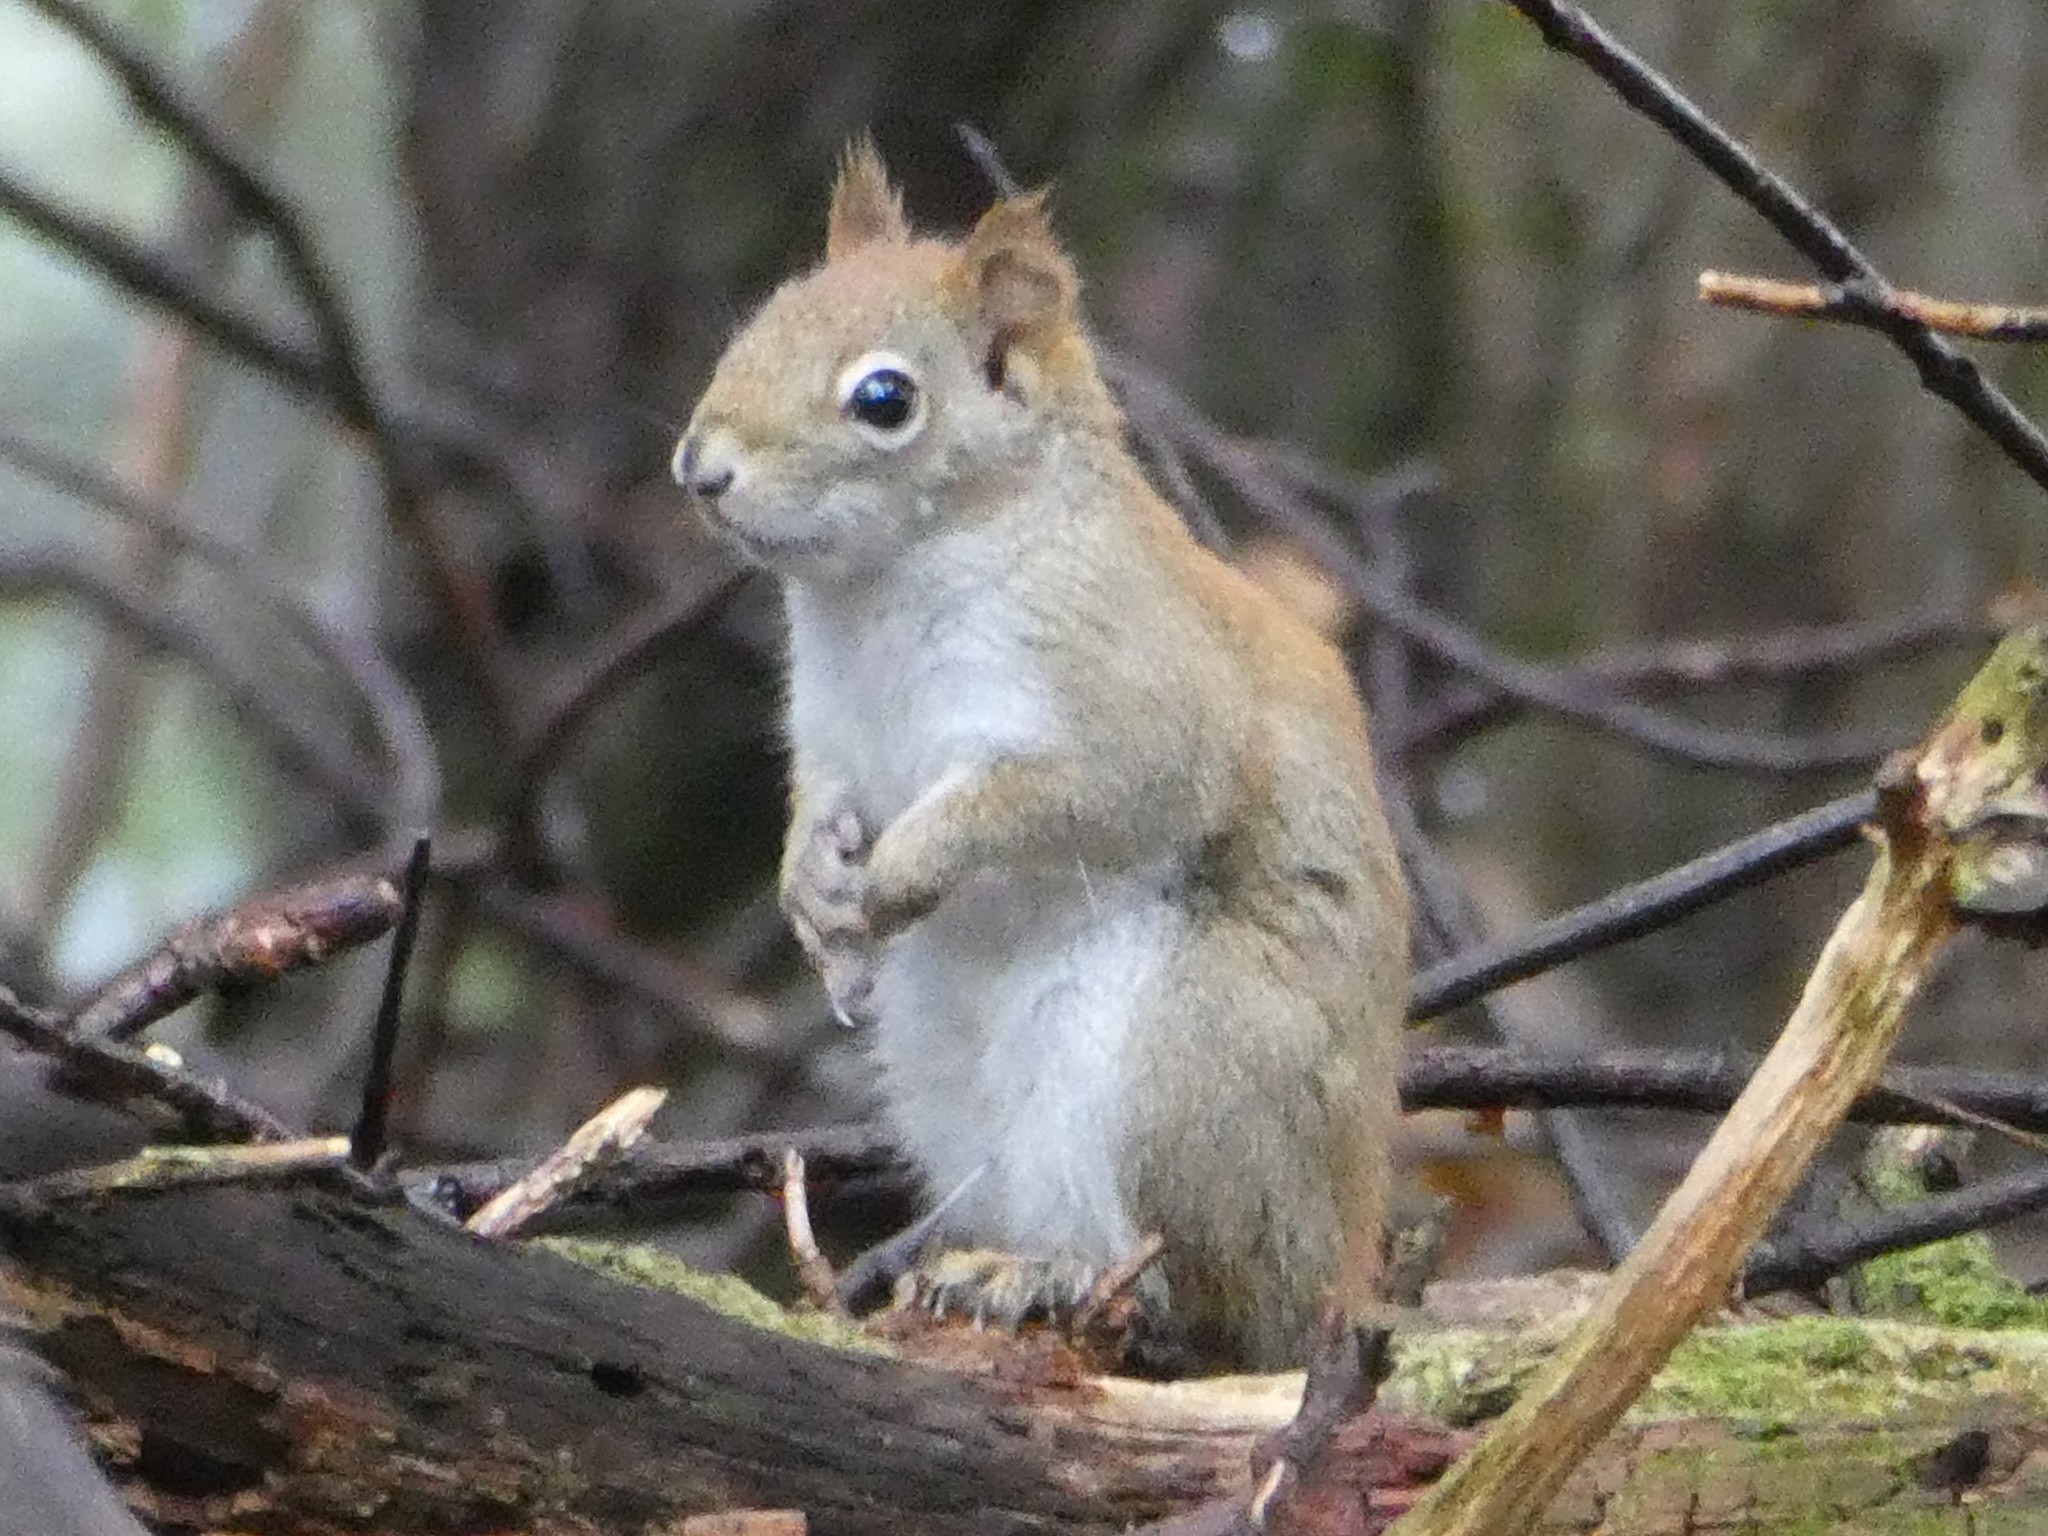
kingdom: Animalia
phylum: Chordata
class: Mammalia
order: Rodentia
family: Sciuridae
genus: Tamiasciurus
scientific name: Tamiasciurus hudsonicus
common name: Red squirrel
